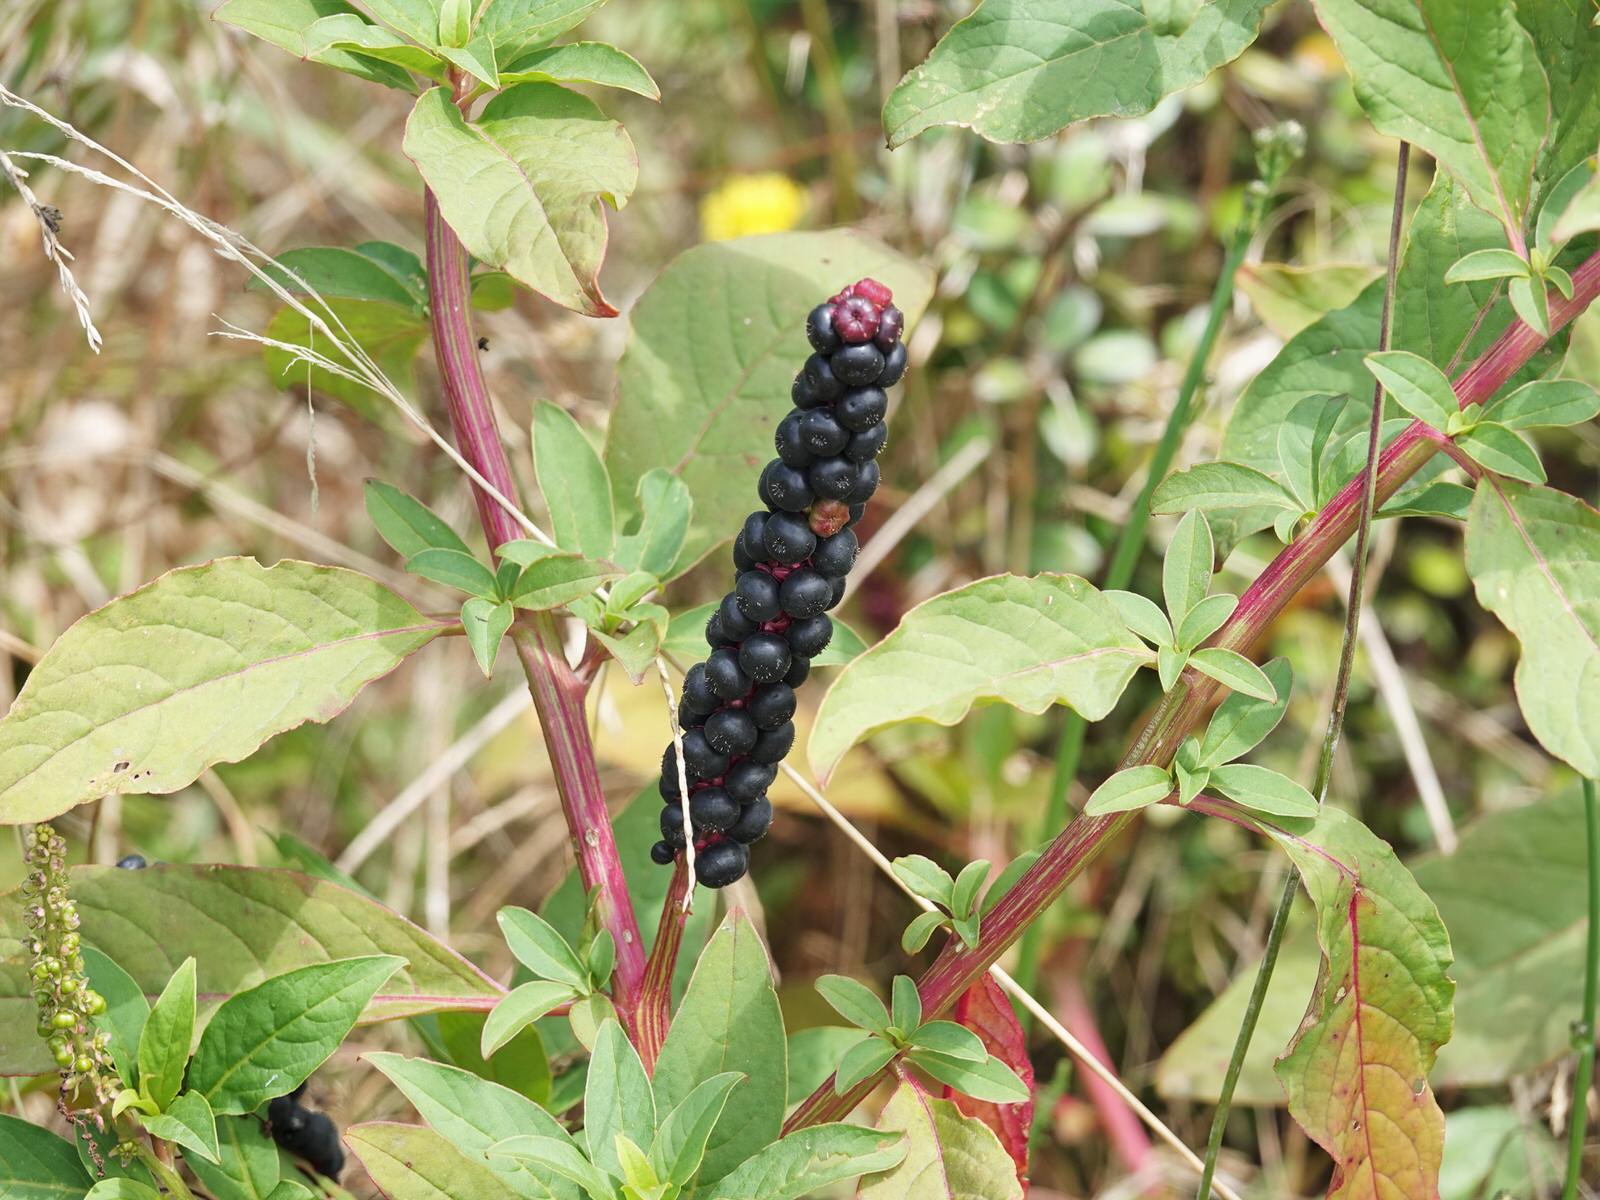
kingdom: Plantae
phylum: Tracheophyta
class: Magnoliopsida
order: Caryophyllales
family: Phytolaccaceae
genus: Phytolacca
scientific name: Phytolacca icosandra
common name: Button pokeweed
